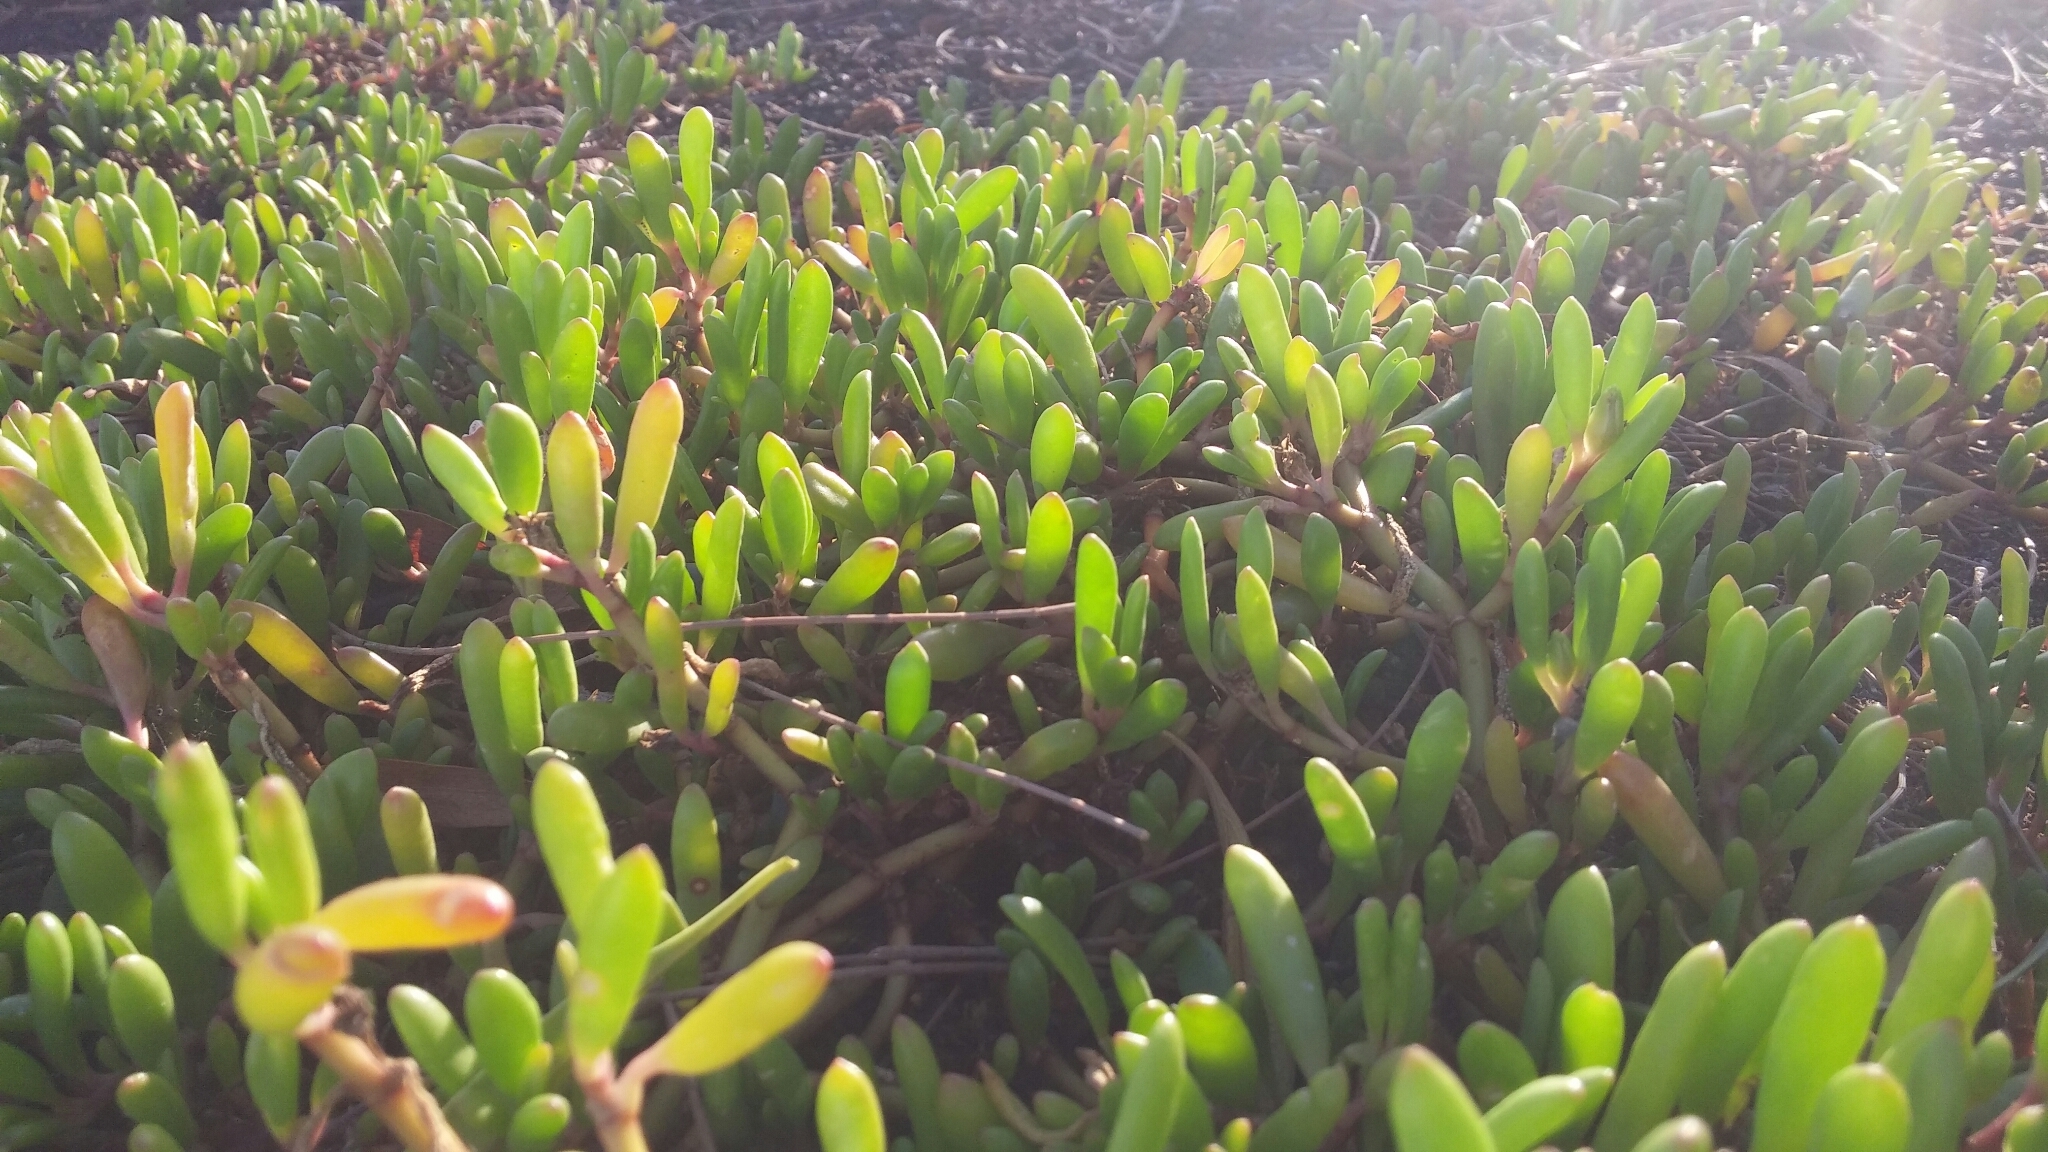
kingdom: Plantae
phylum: Tracheophyta
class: Magnoliopsida
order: Caryophyllales
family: Aizoaceae
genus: Sesuvium
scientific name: Sesuvium portulacastrum
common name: Sea-purslane
